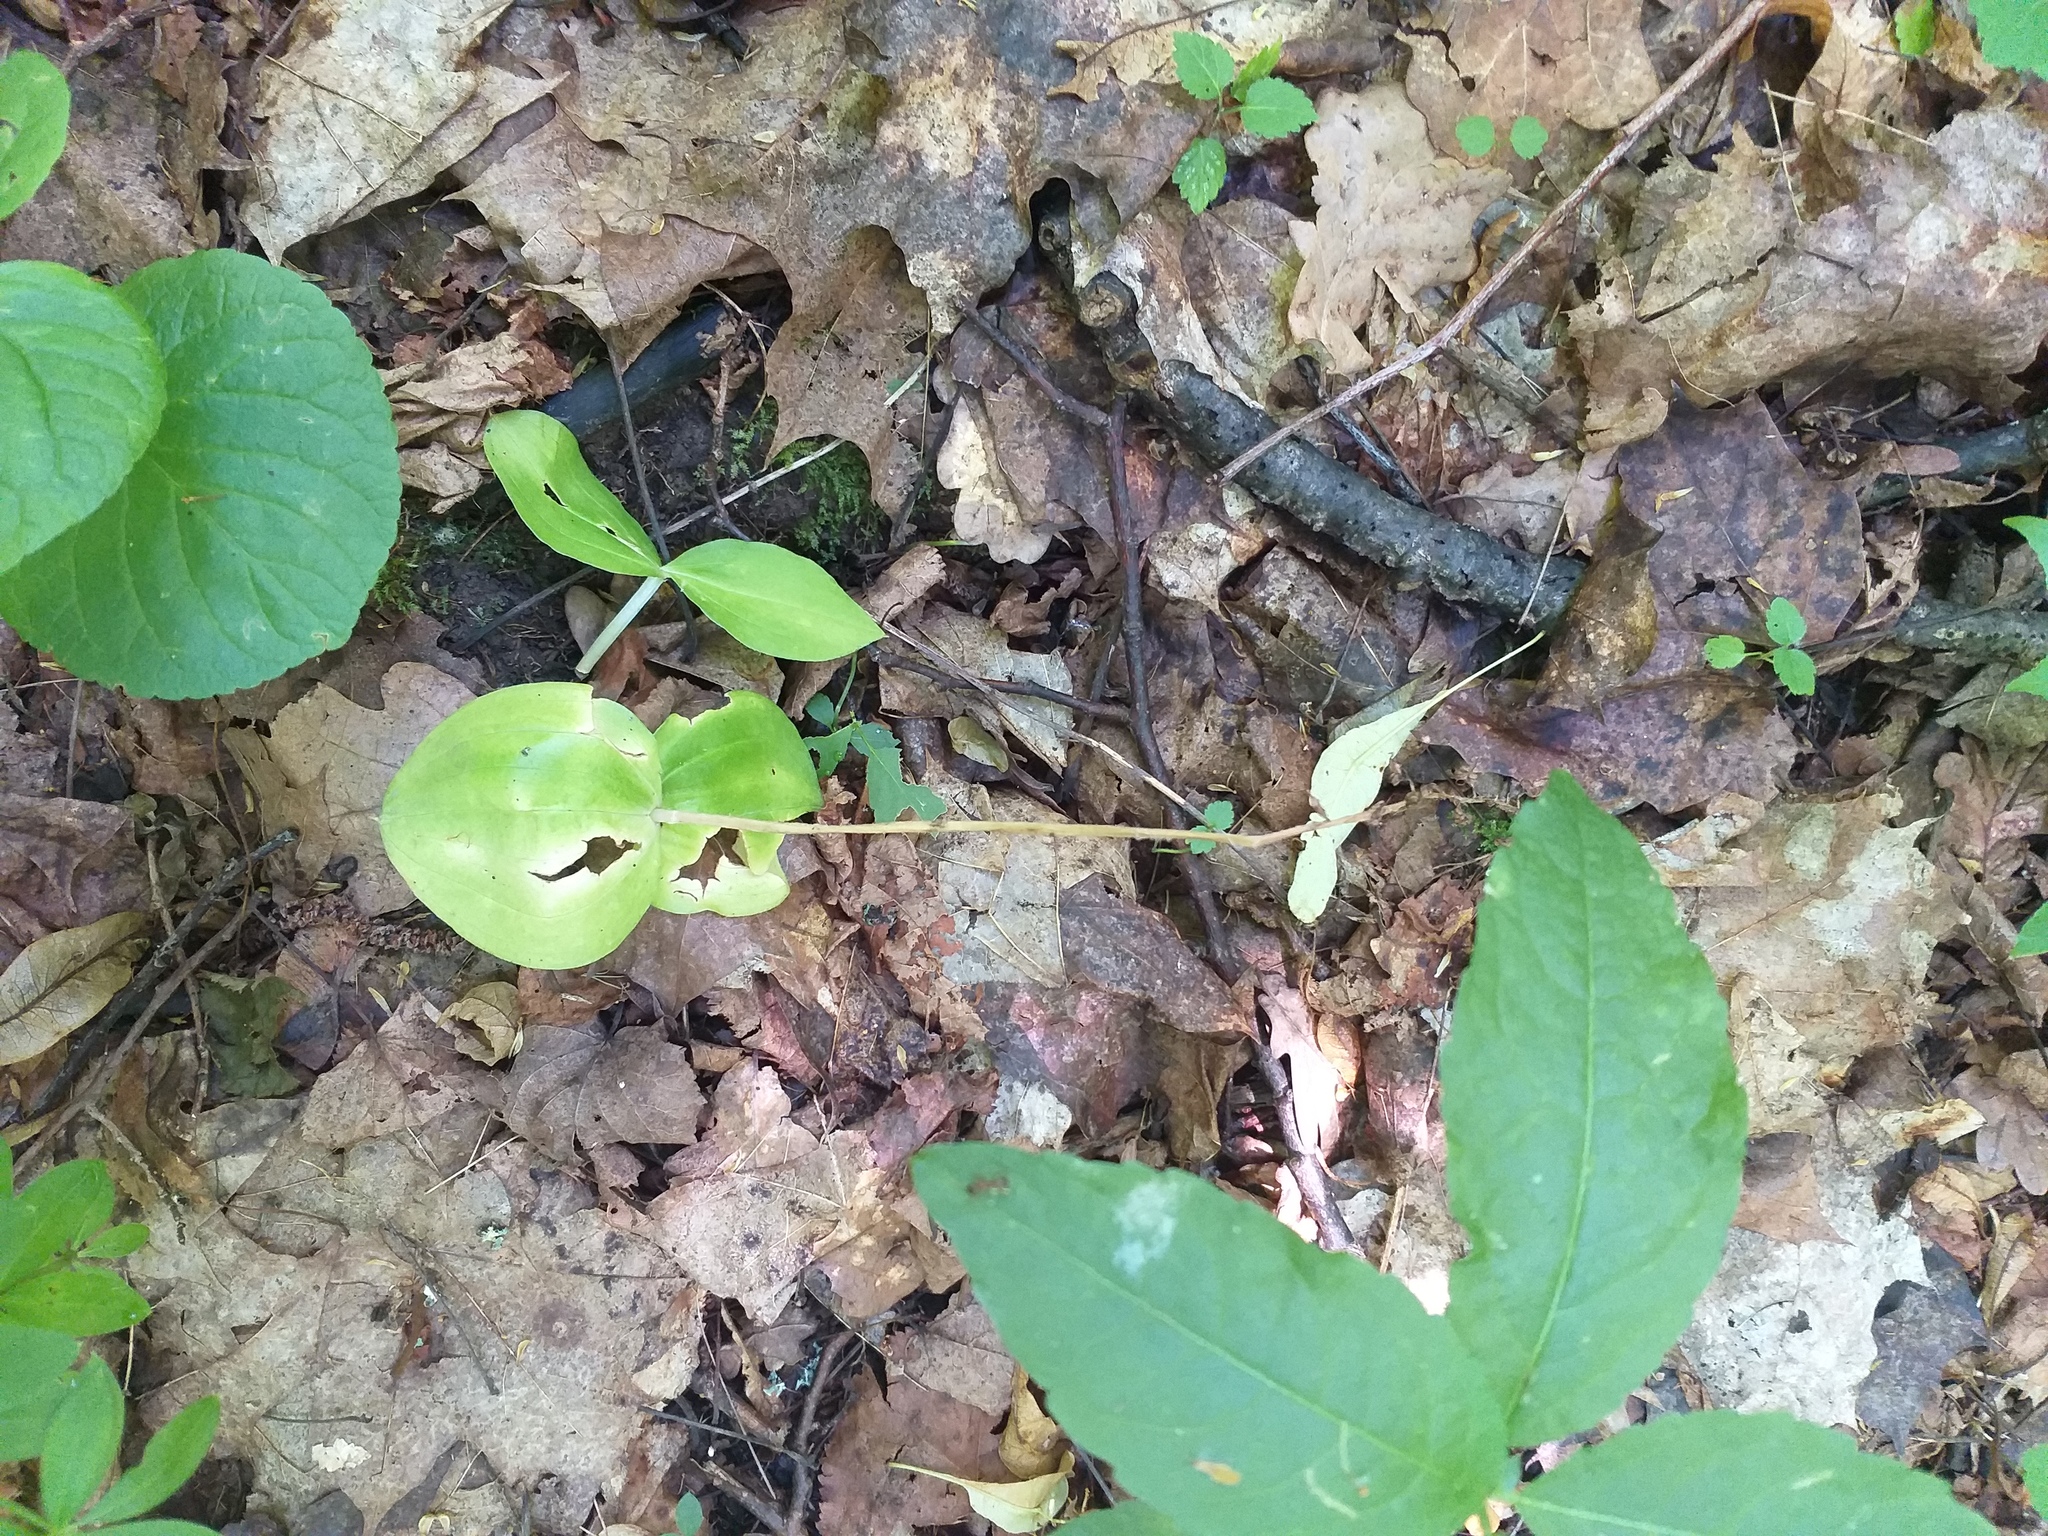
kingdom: Plantae
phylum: Tracheophyta
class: Liliopsida
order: Asparagales
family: Orchidaceae
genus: Neottia
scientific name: Neottia ovata
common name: Common twayblade
